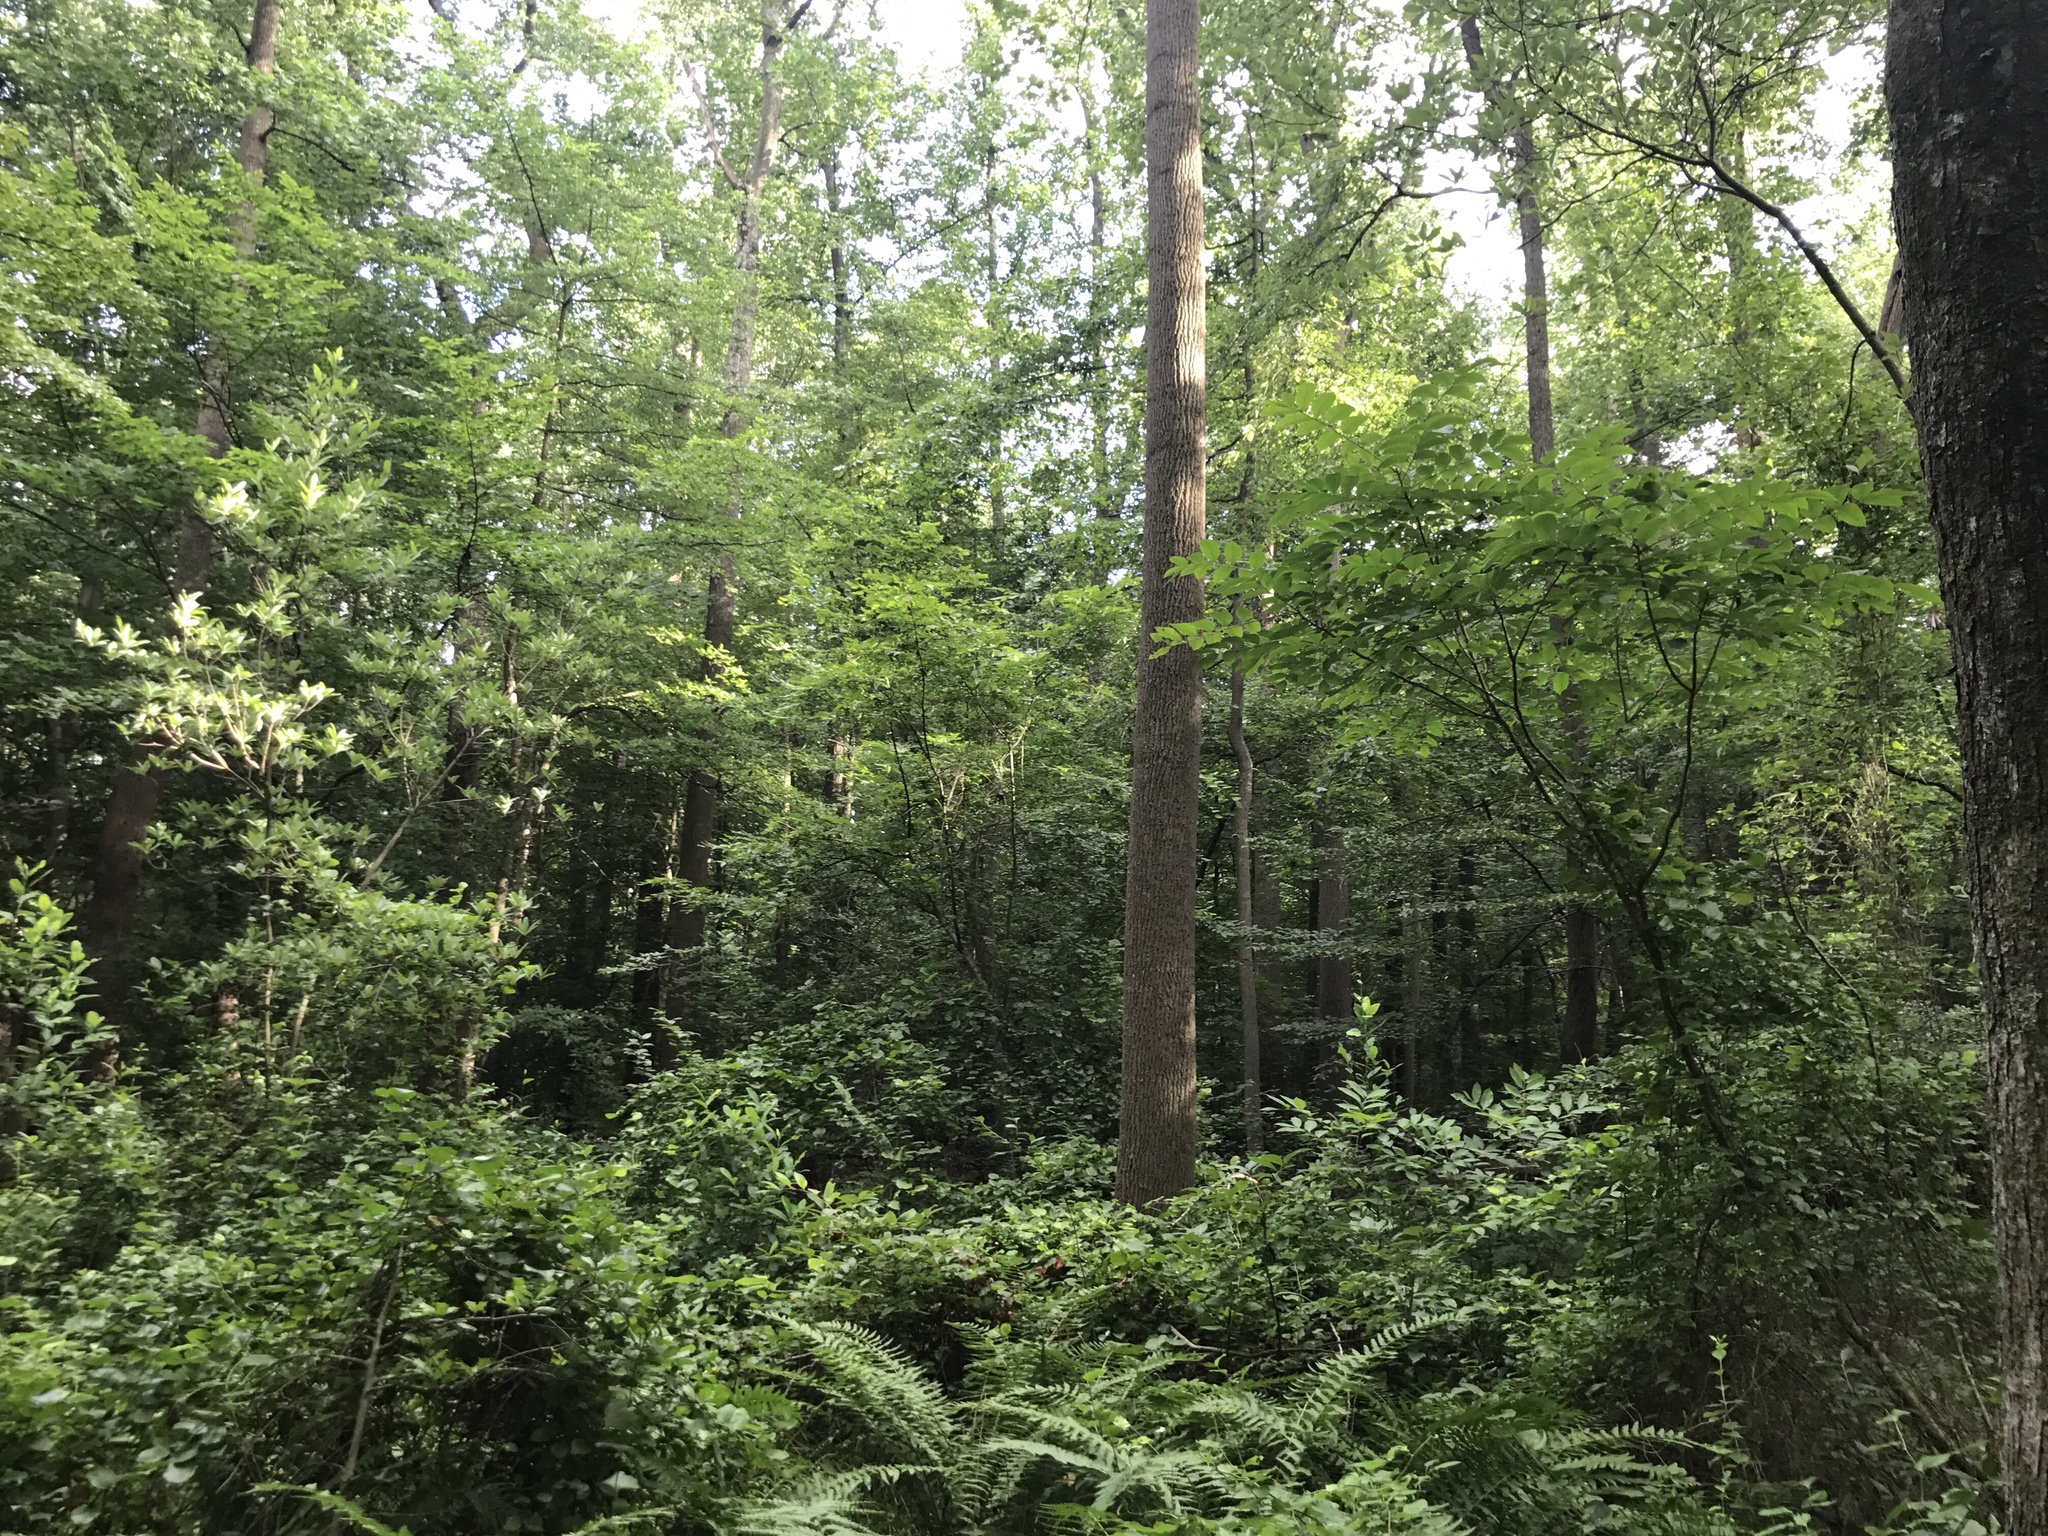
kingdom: Plantae
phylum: Tracheophyta
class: Magnoliopsida
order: Sapindales
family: Anacardiaceae
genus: Toxicodendron
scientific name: Toxicodendron vernix
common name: Poison sumac
